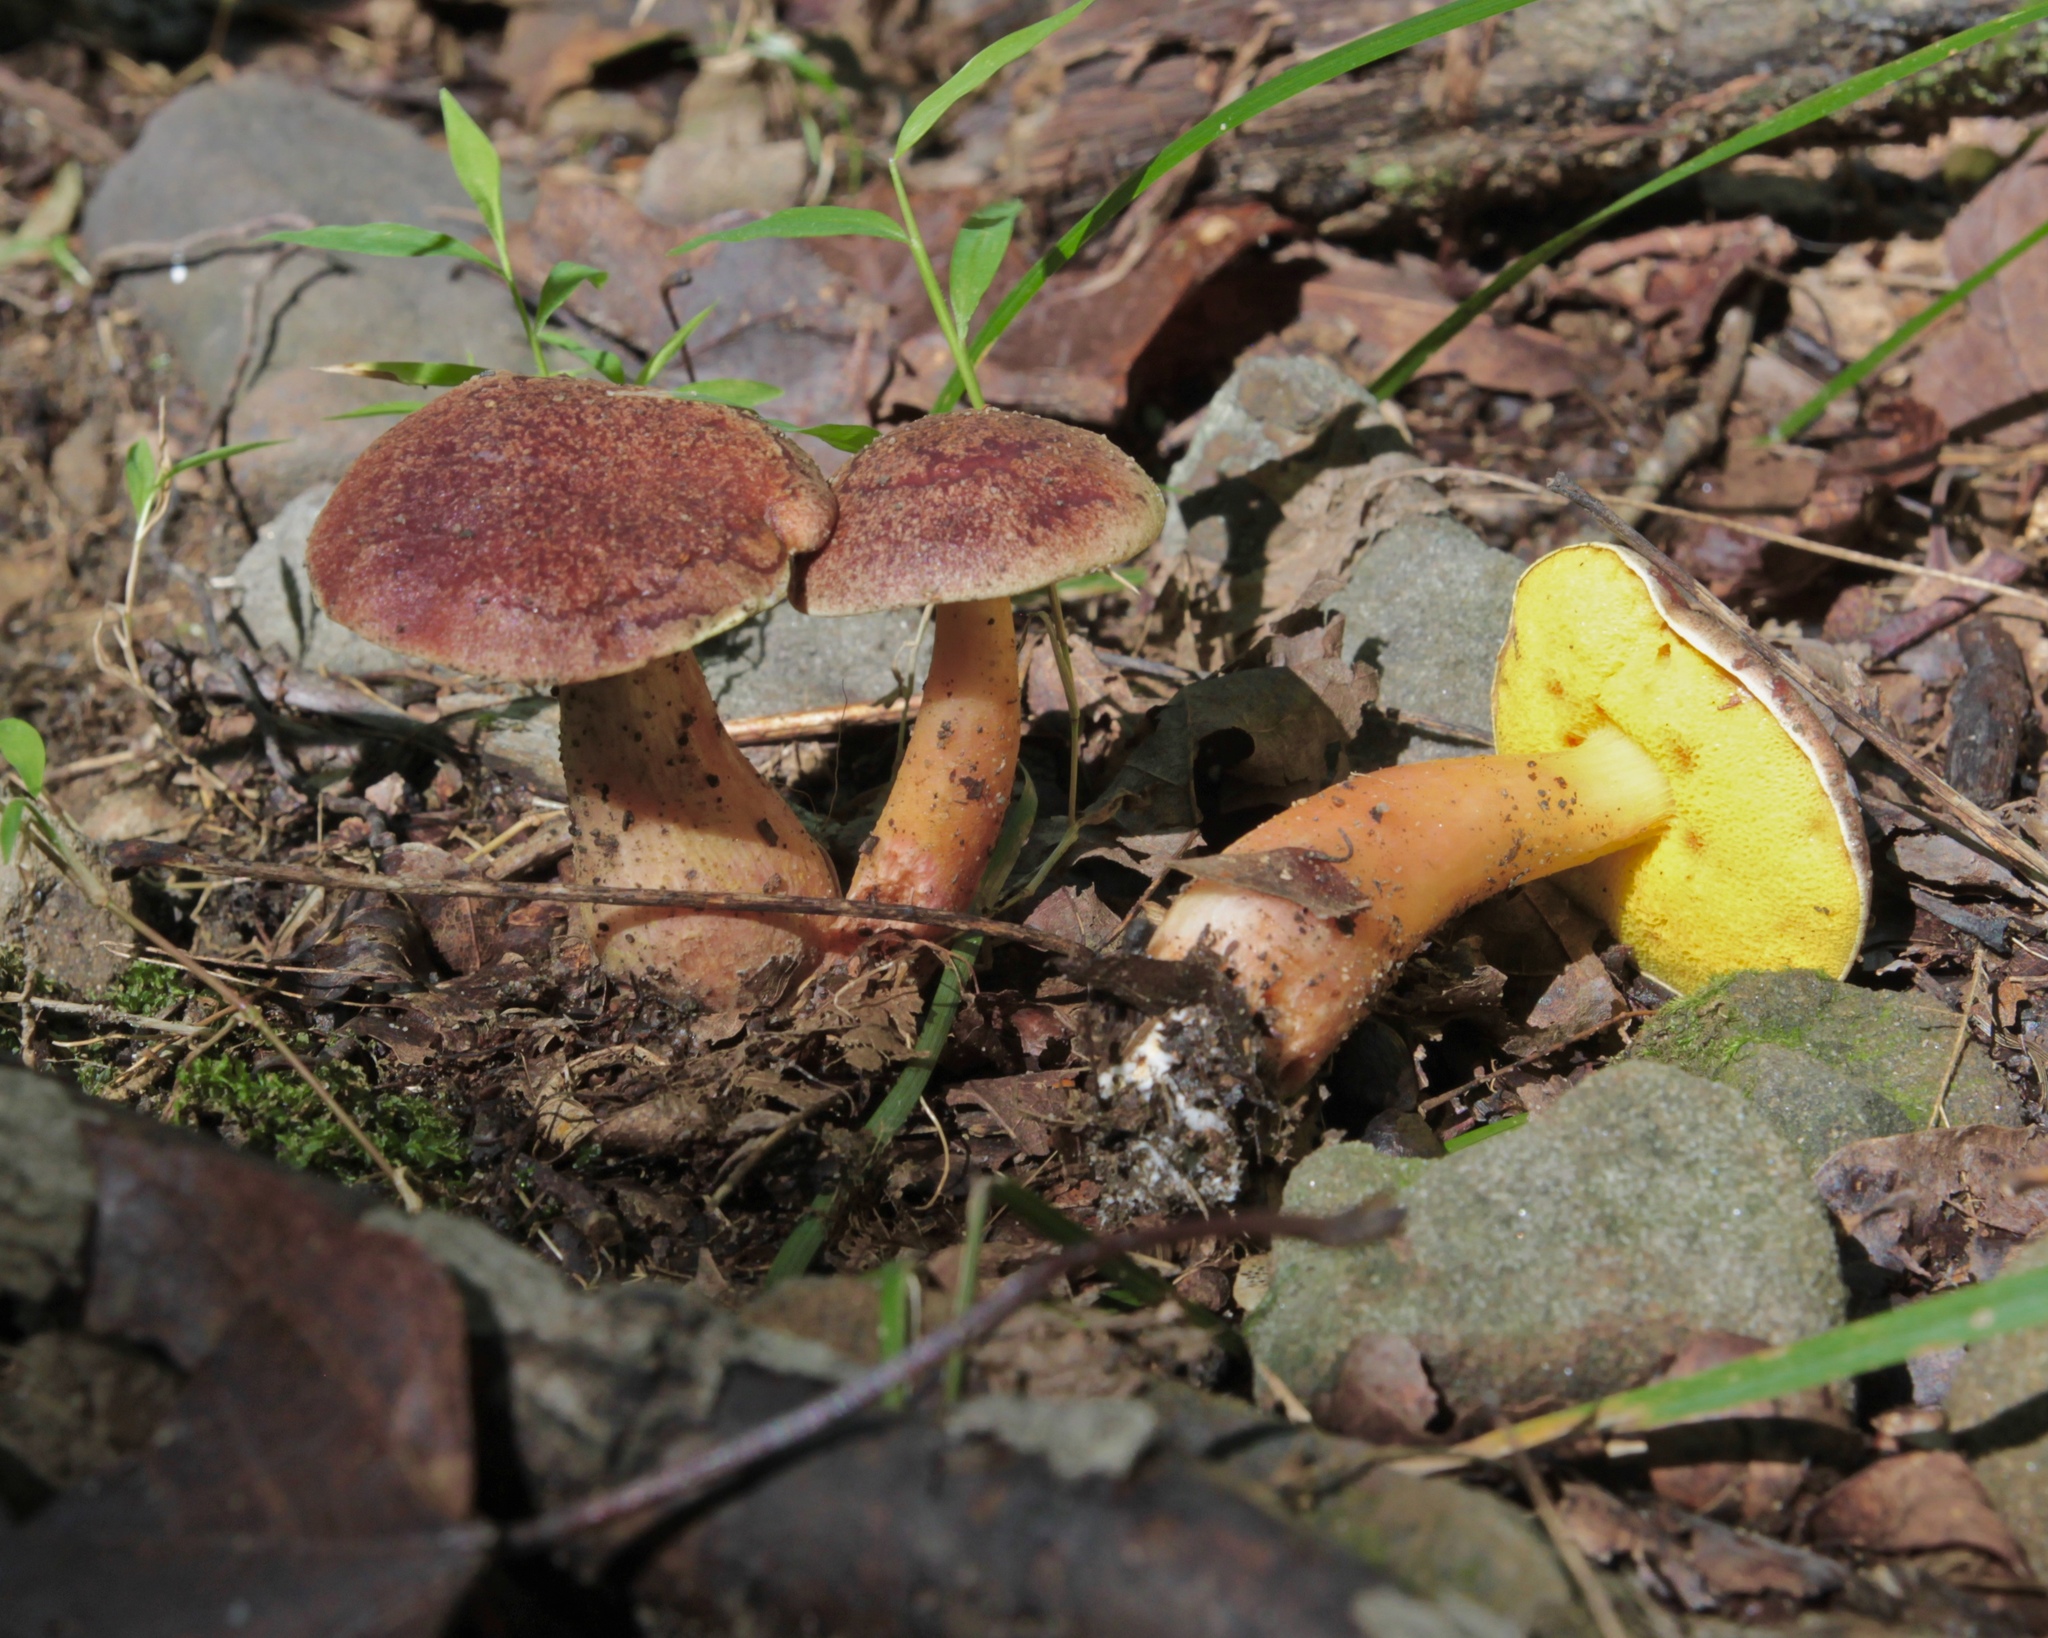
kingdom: Fungi
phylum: Basidiomycota
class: Agaricomycetes
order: Boletales
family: Boletaceae
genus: Aureoboletus
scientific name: Aureoboletus auriporus
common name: Sour gold-pored bolete
